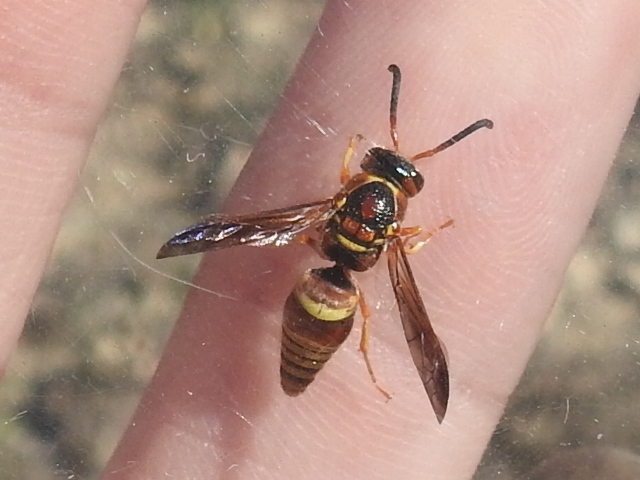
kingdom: Animalia
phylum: Arthropoda
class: Insecta
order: Hymenoptera
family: Eumenidae
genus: Euodynerus
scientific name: Euodynerus pratensis
